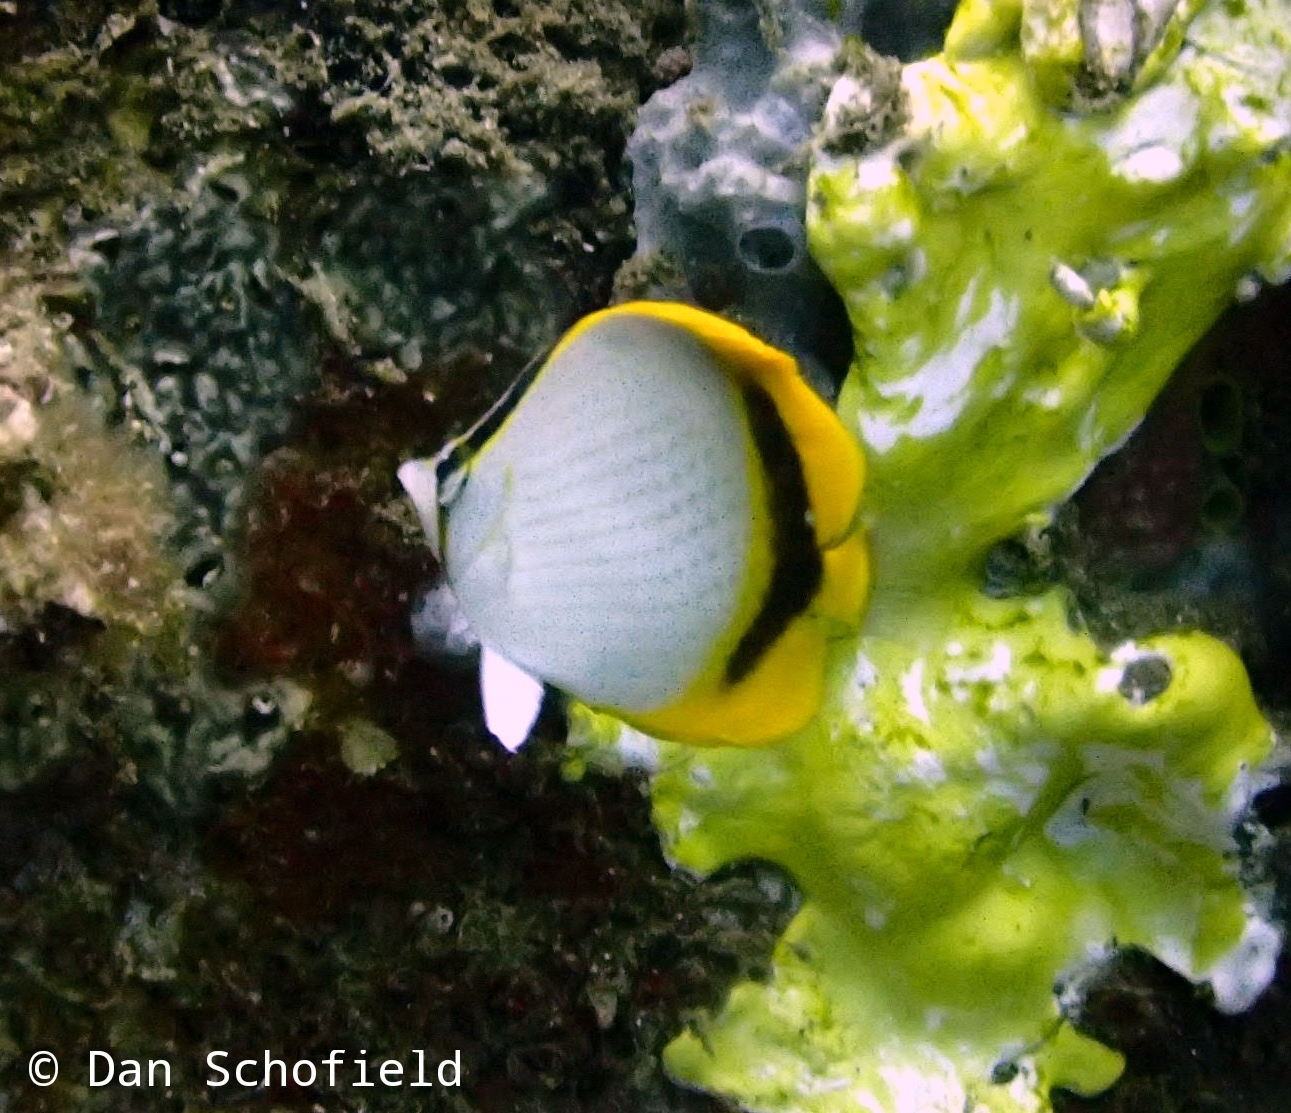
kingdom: Animalia
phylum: Chordata
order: Perciformes
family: Chaetodontidae
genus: Chaetodon
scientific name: Chaetodon selene
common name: Yellow-dotted butterflyfish
